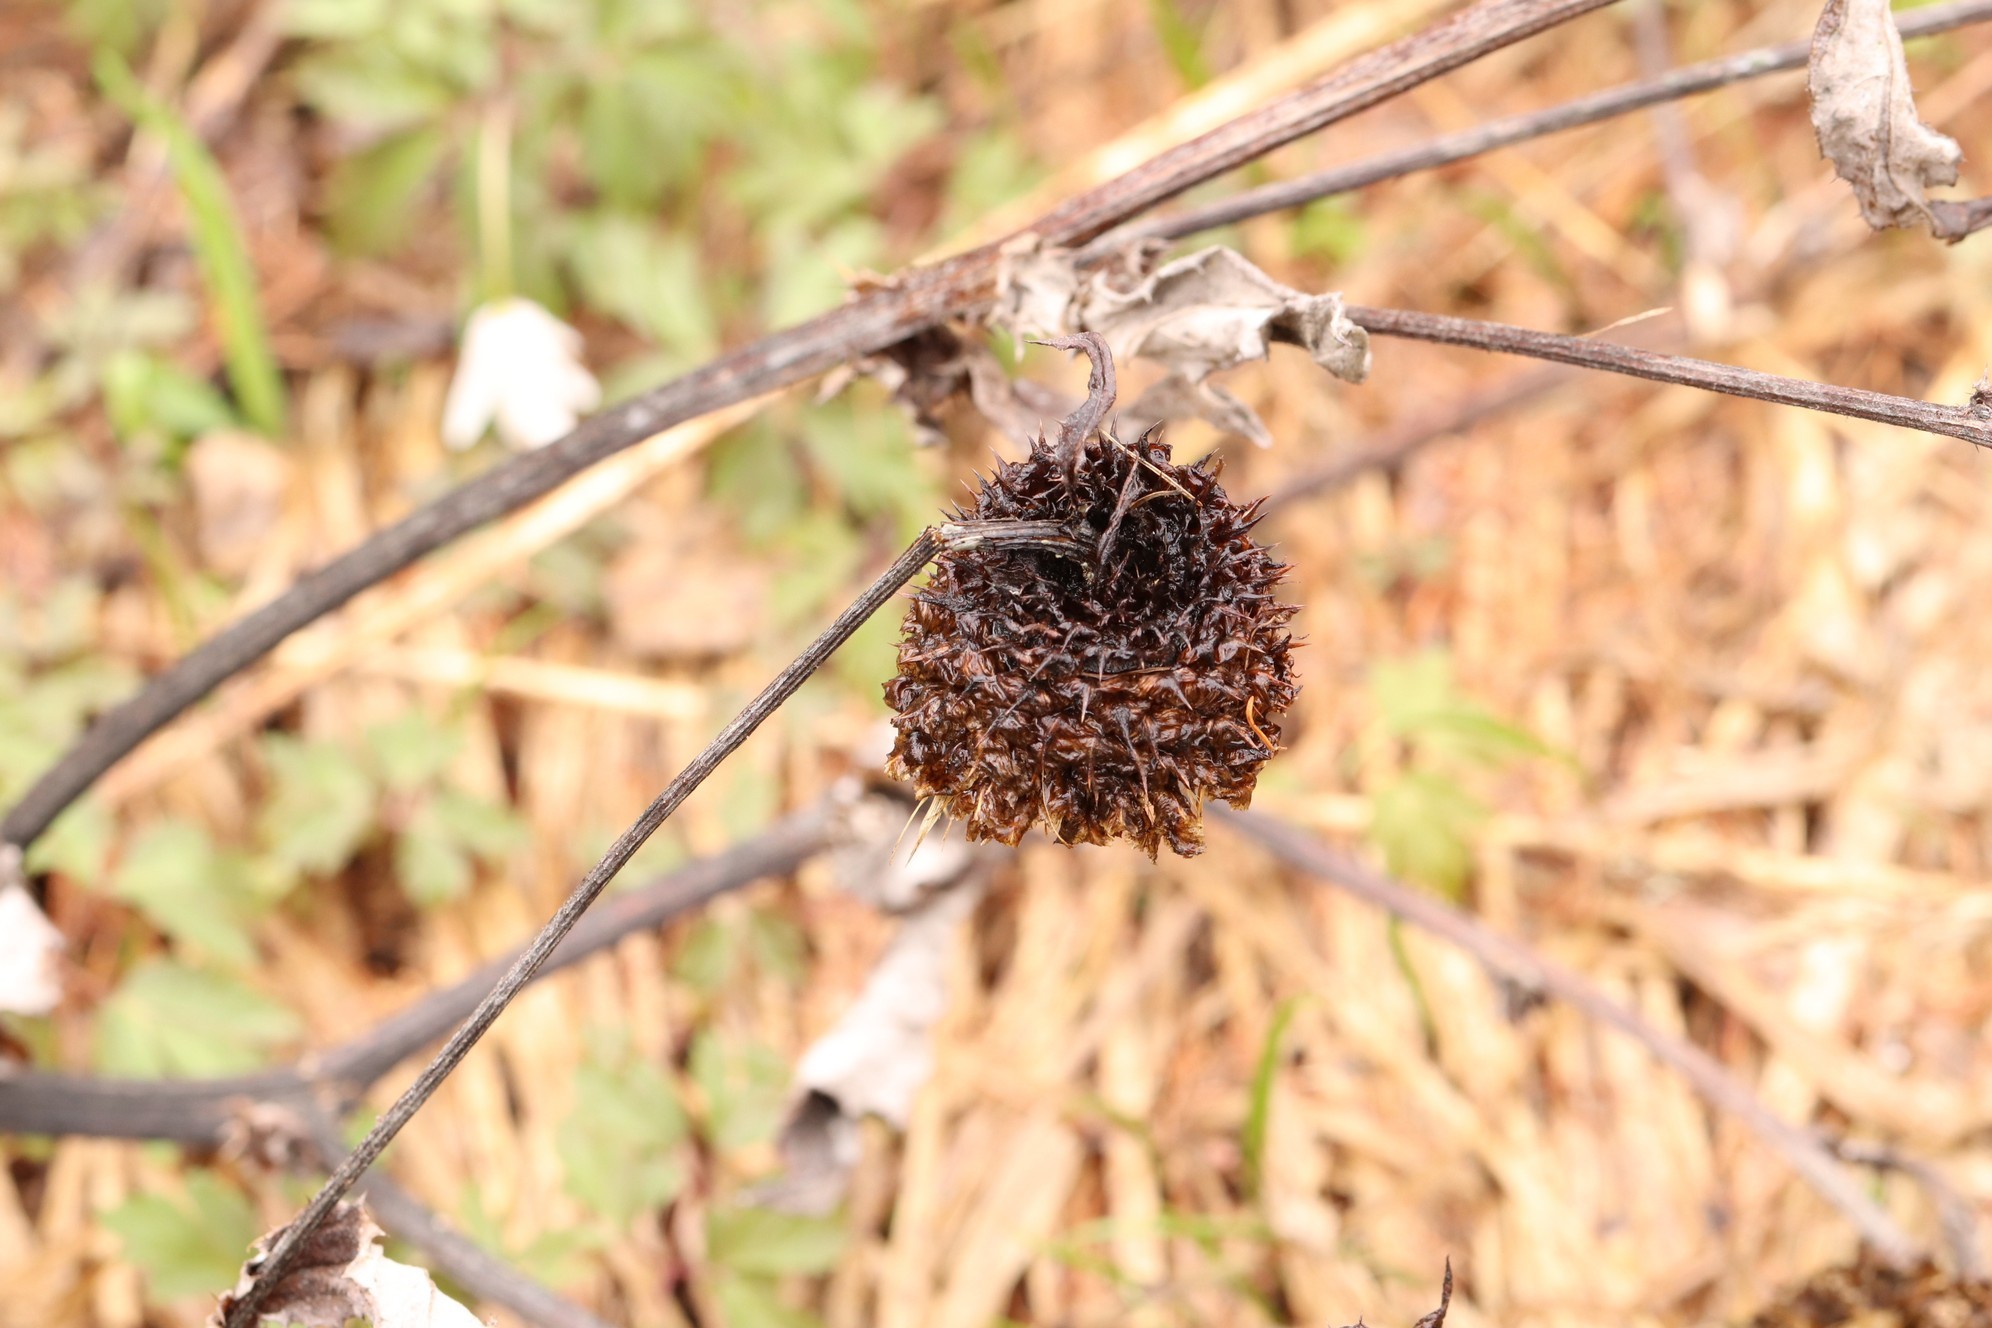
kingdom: Plantae
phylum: Tracheophyta
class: Magnoliopsida
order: Asterales
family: Asteraceae
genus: Alfredia
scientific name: Alfredia cernua
